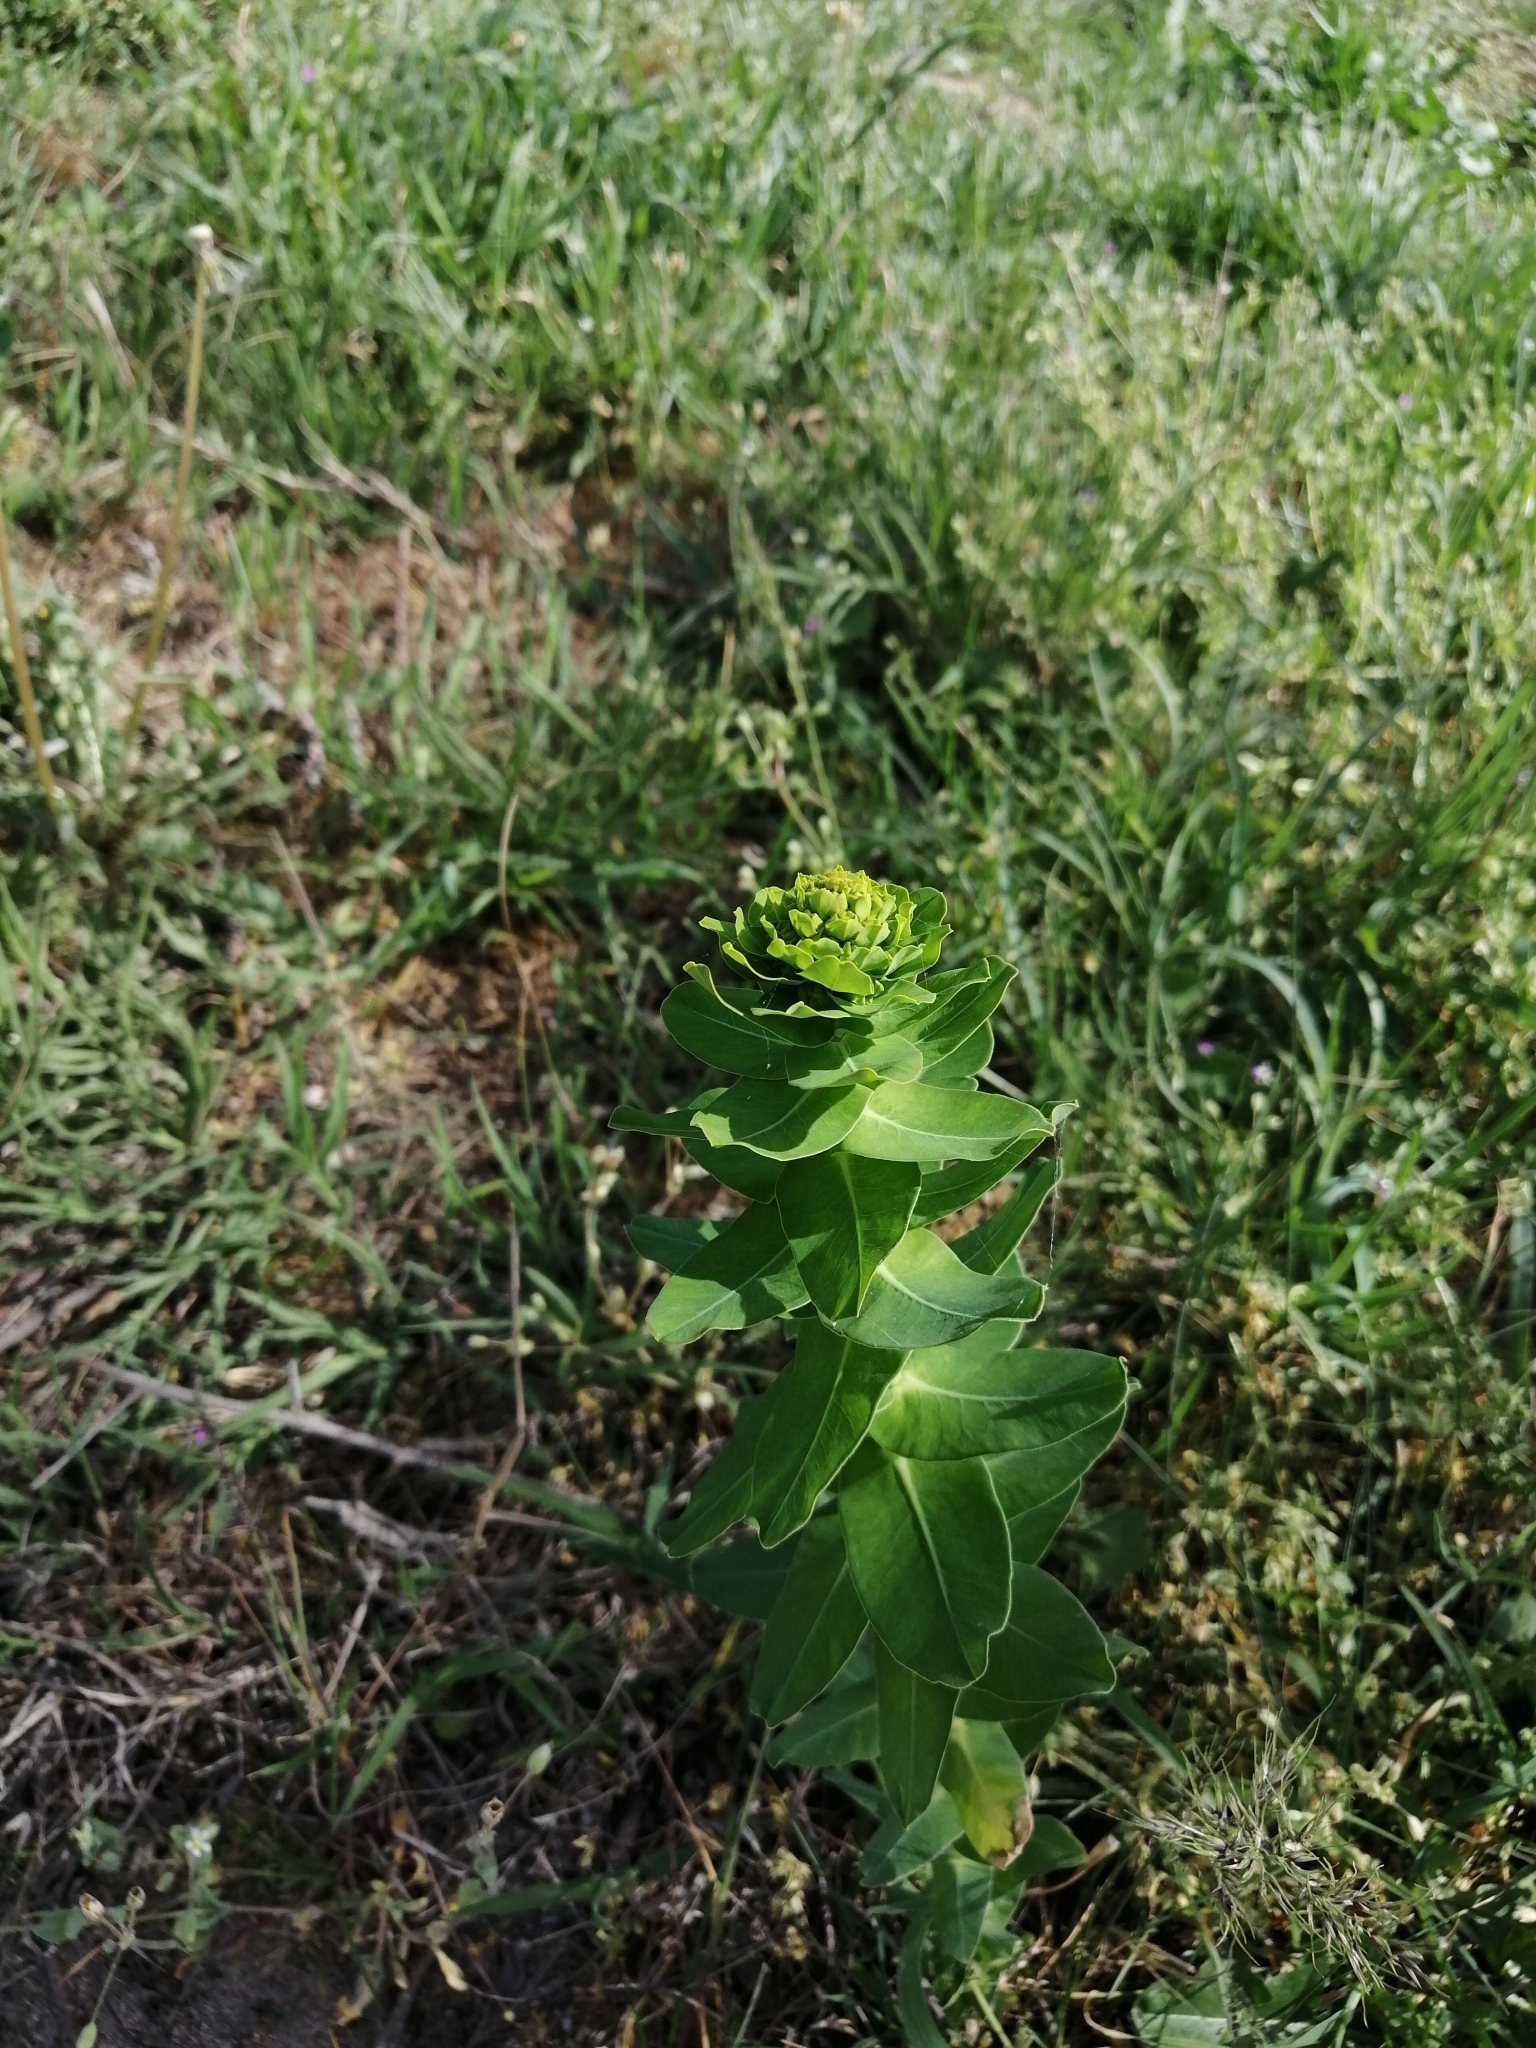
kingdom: Plantae
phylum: Tracheophyta
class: Magnoliopsida
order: Malpighiales
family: Euphorbiaceae
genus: Euphorbia
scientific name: Euphorbia agraria
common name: Urban spurge
